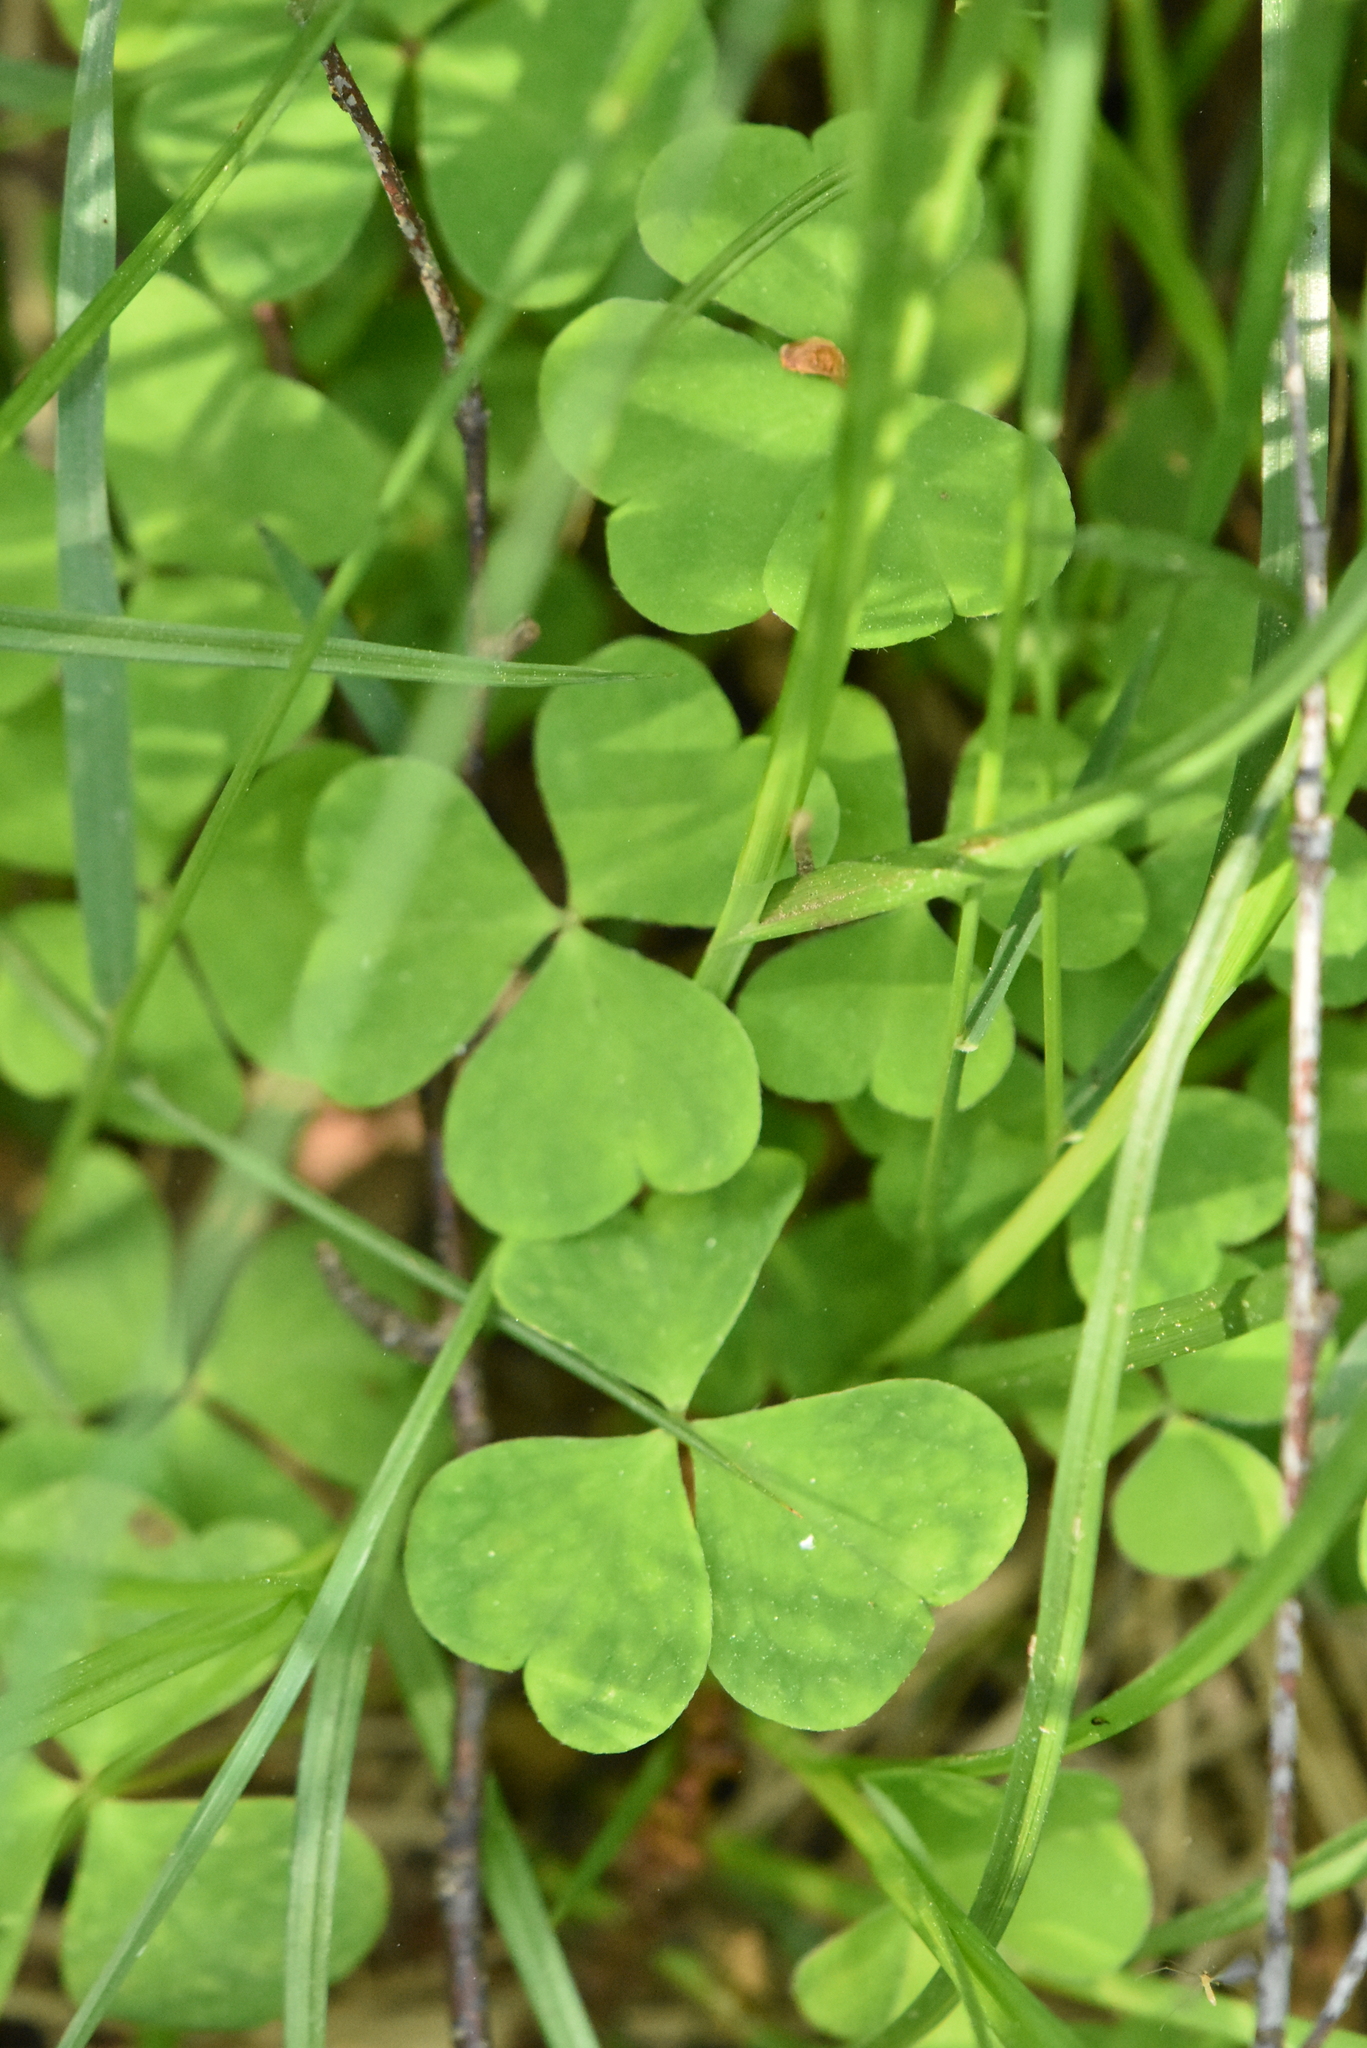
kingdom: Plantae
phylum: Tracheophyta
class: Magnoliopsida
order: Oxalidales
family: Oxalidaceae
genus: Oxalis
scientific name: Oxalis acetosella
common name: Wood-sorrel
